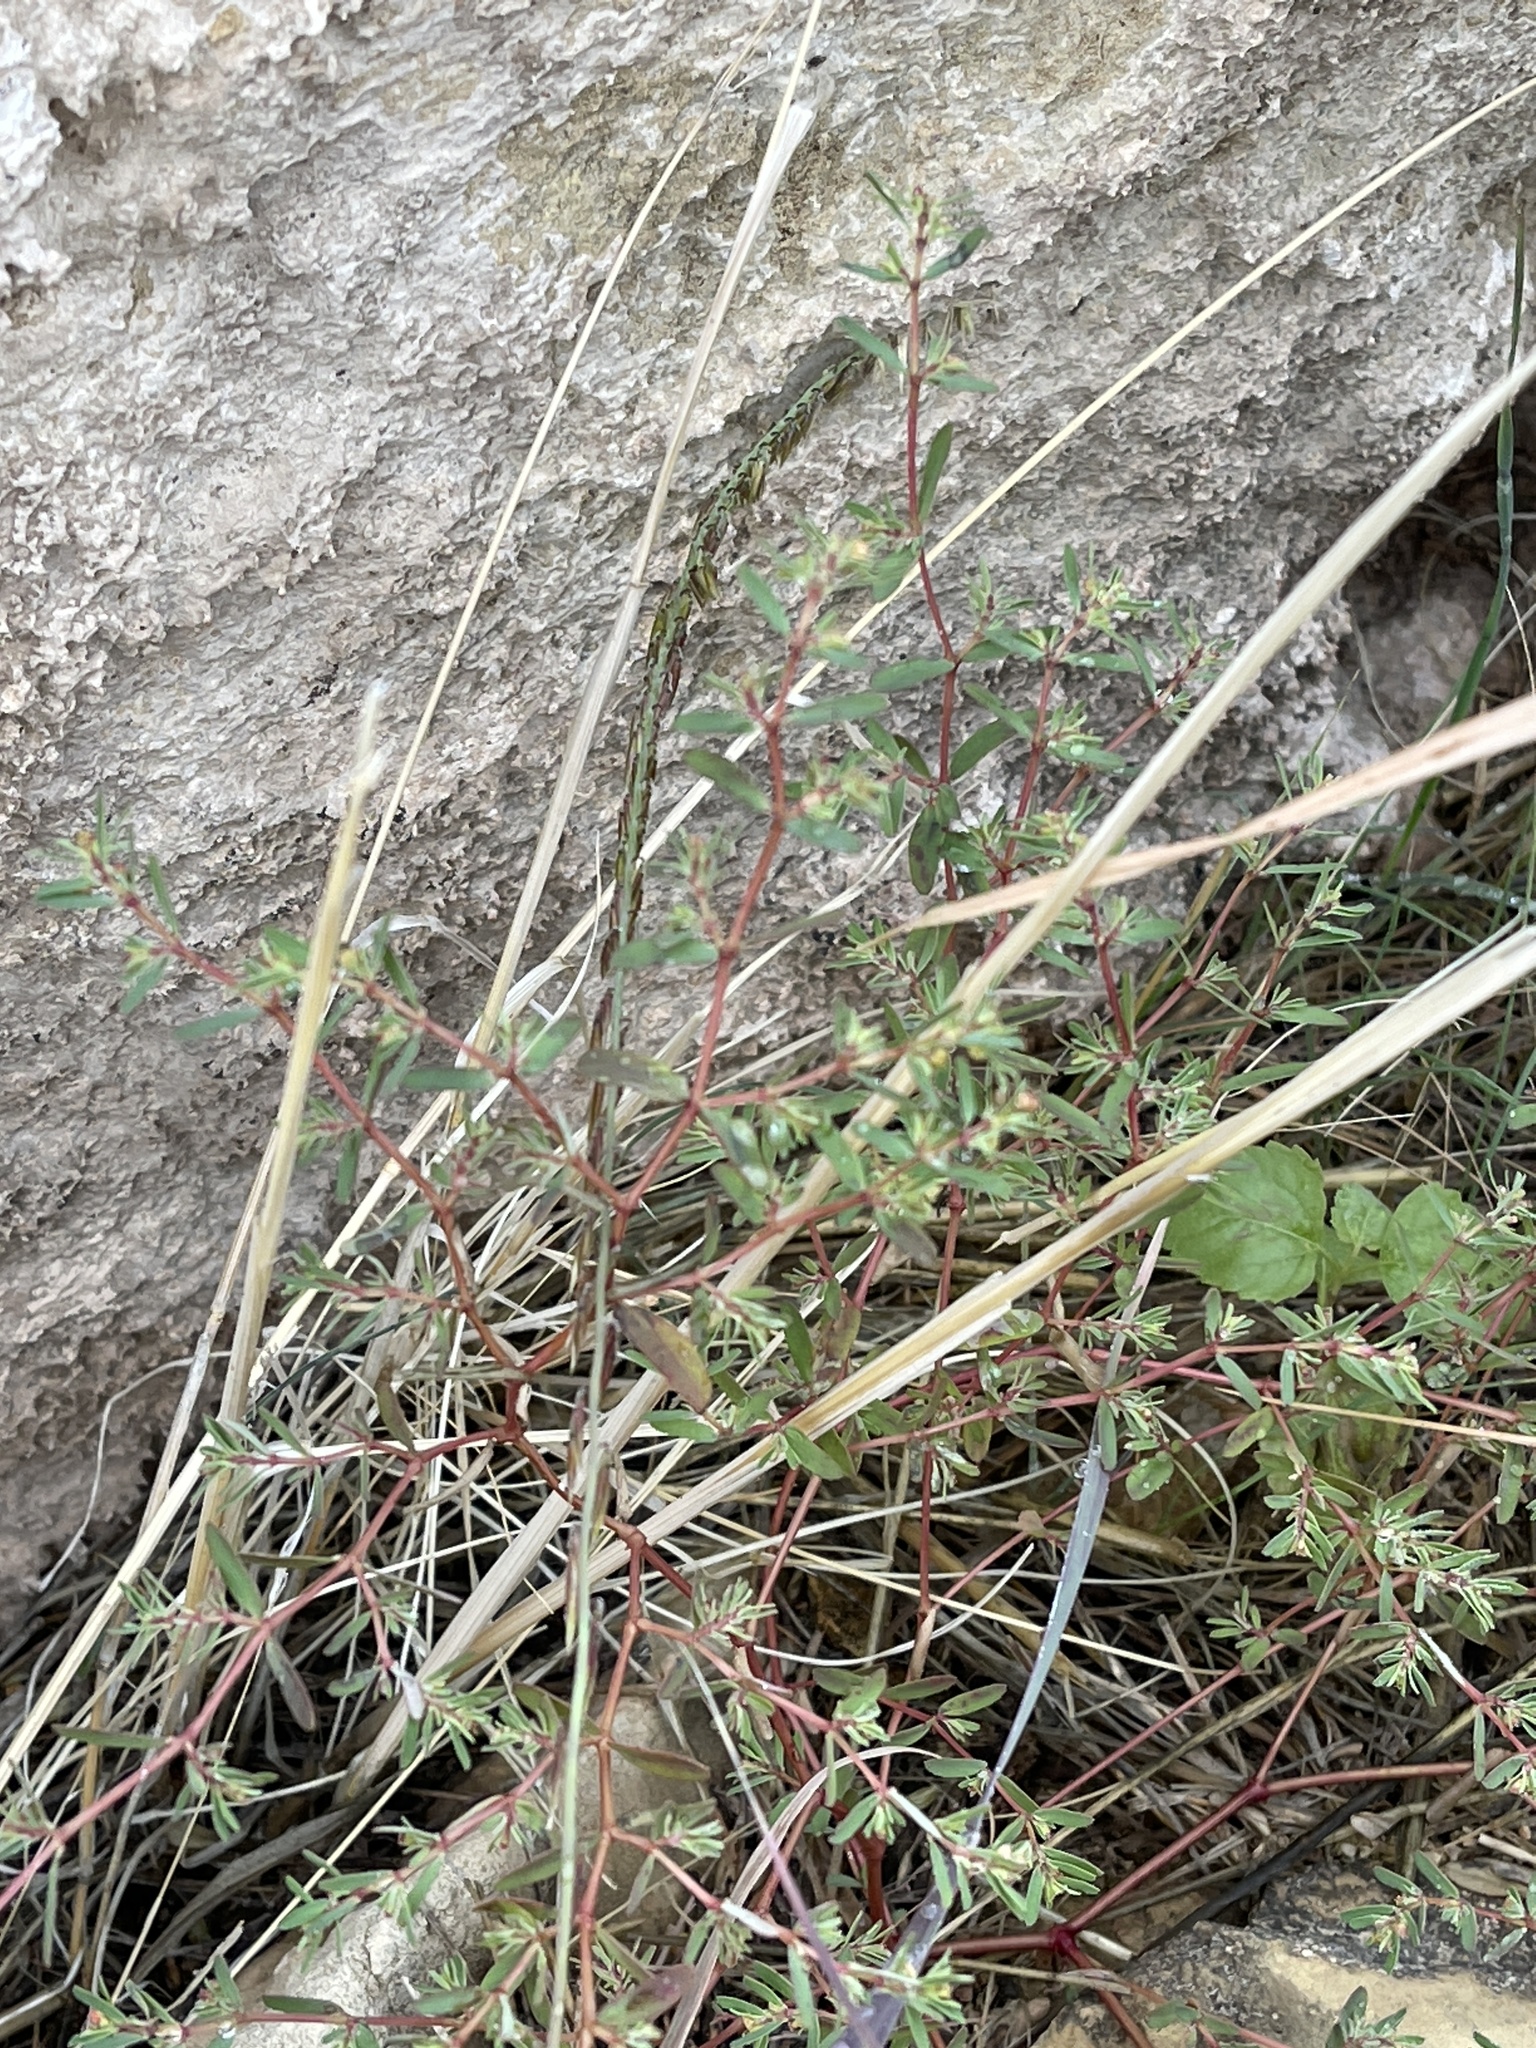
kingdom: Plantae
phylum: Tracheophyta
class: Magnoliopsida
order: Malpighiales
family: Euphorbiaceae
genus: Euphorbia
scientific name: Euphorbia serpillifolia
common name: Thyme-leaf spurge
